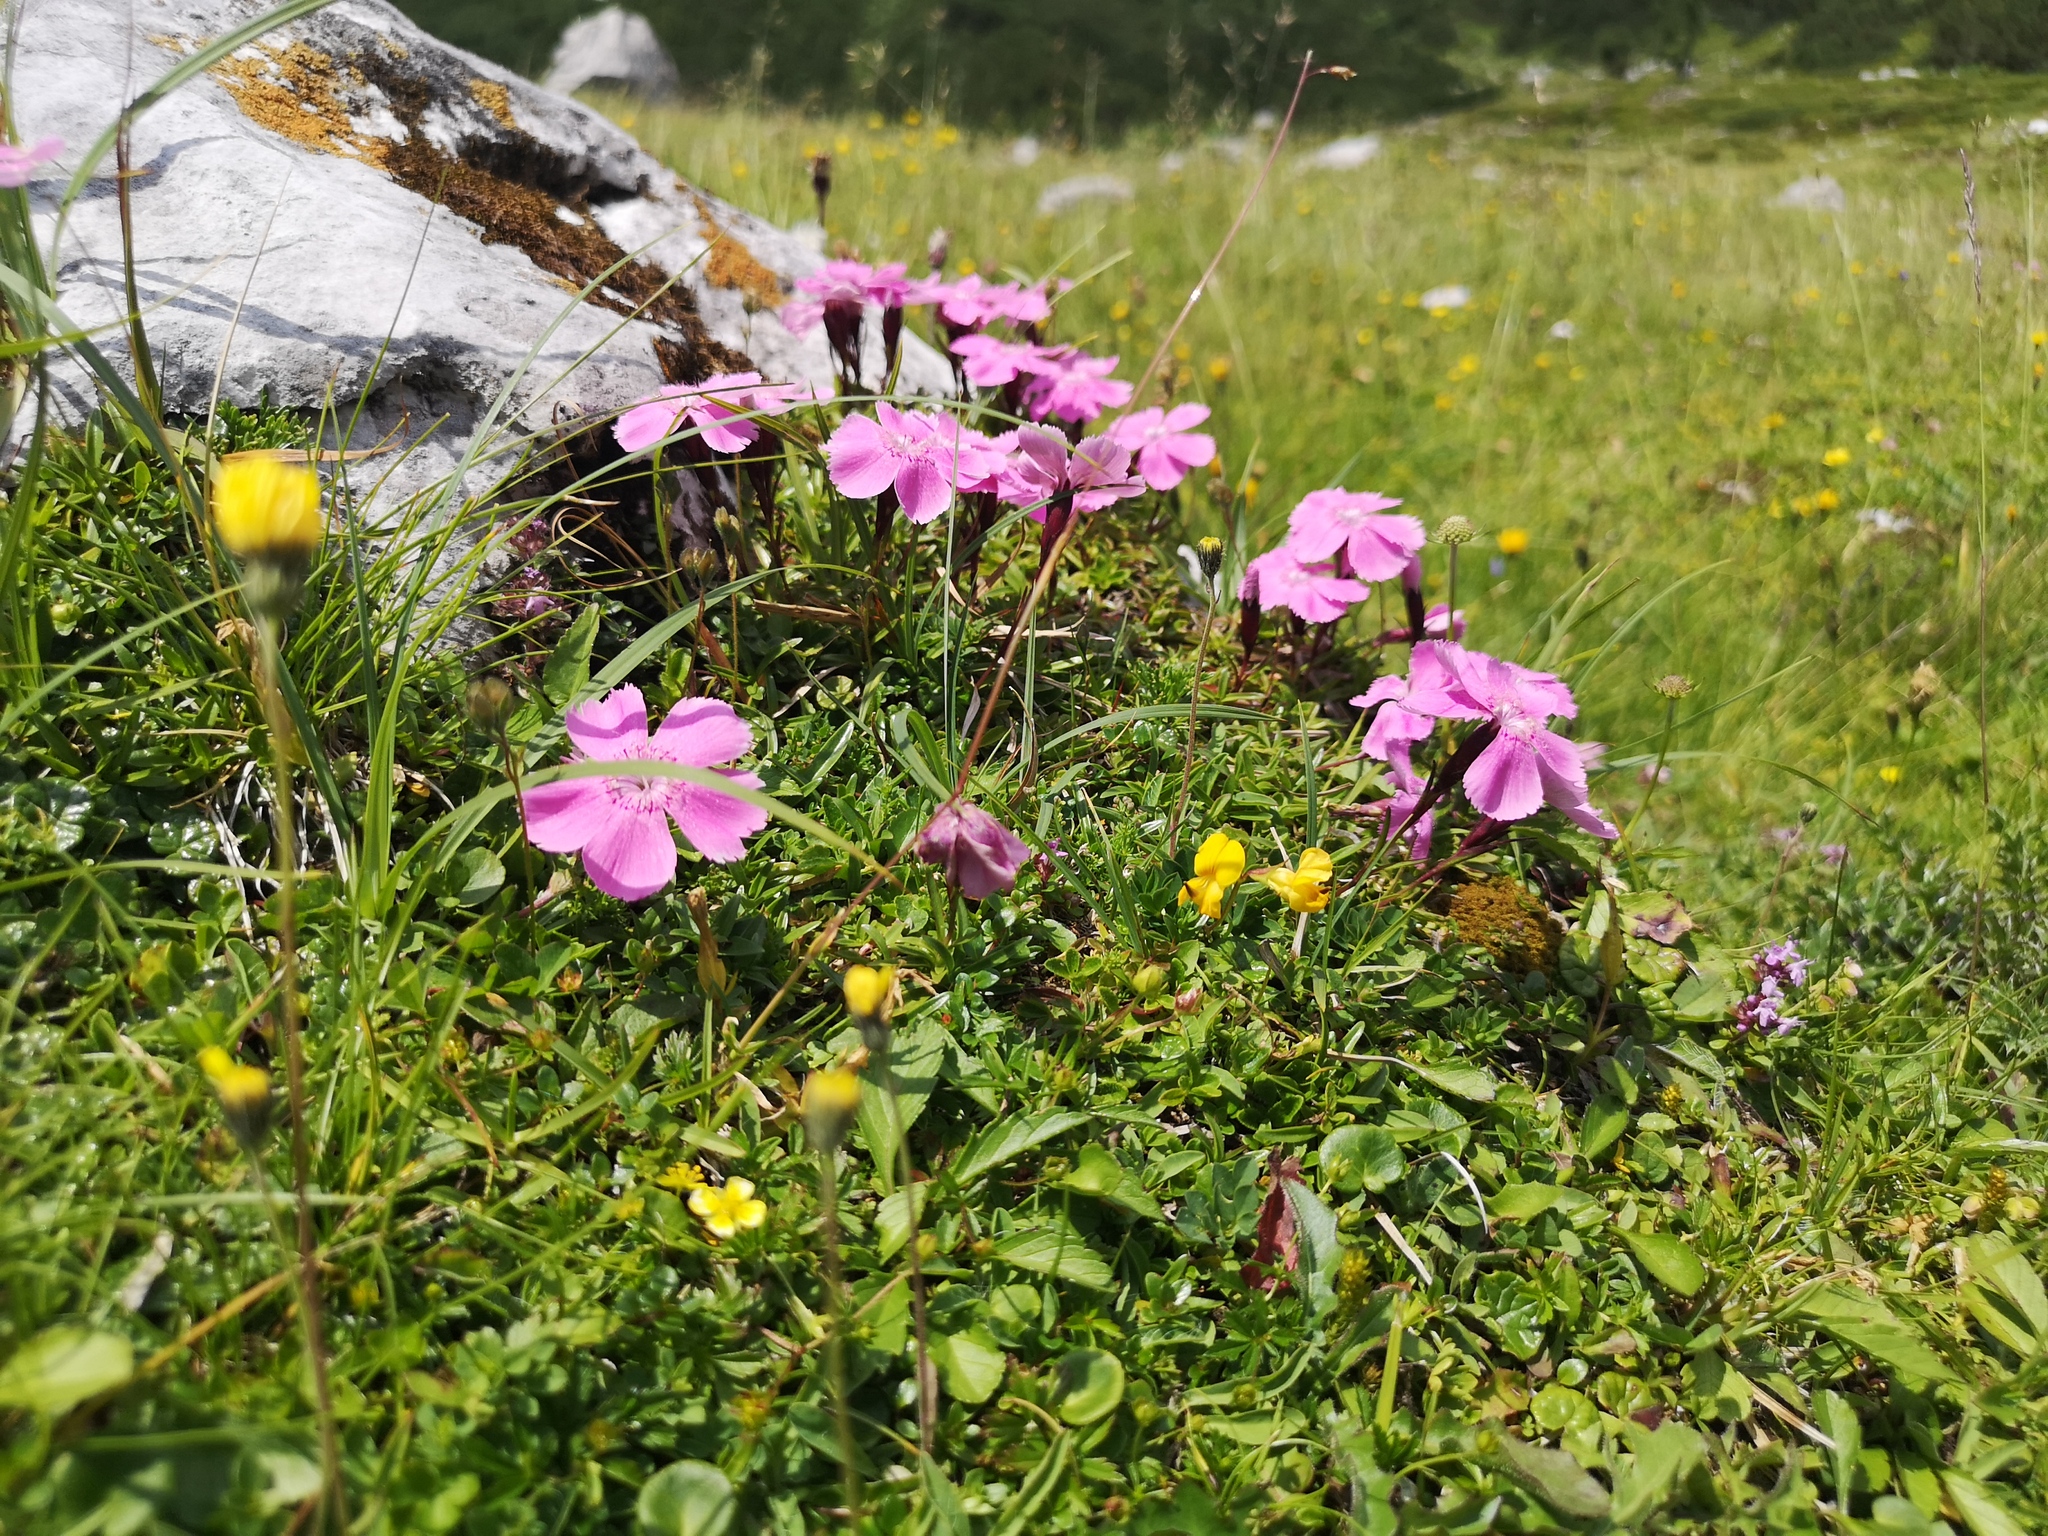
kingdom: Plantae
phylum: Tracheophyta
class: Magnoliopsida
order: Caryophyllales
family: Caryophyllaceae
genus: Dianthus
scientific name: Dianthus alpinus
